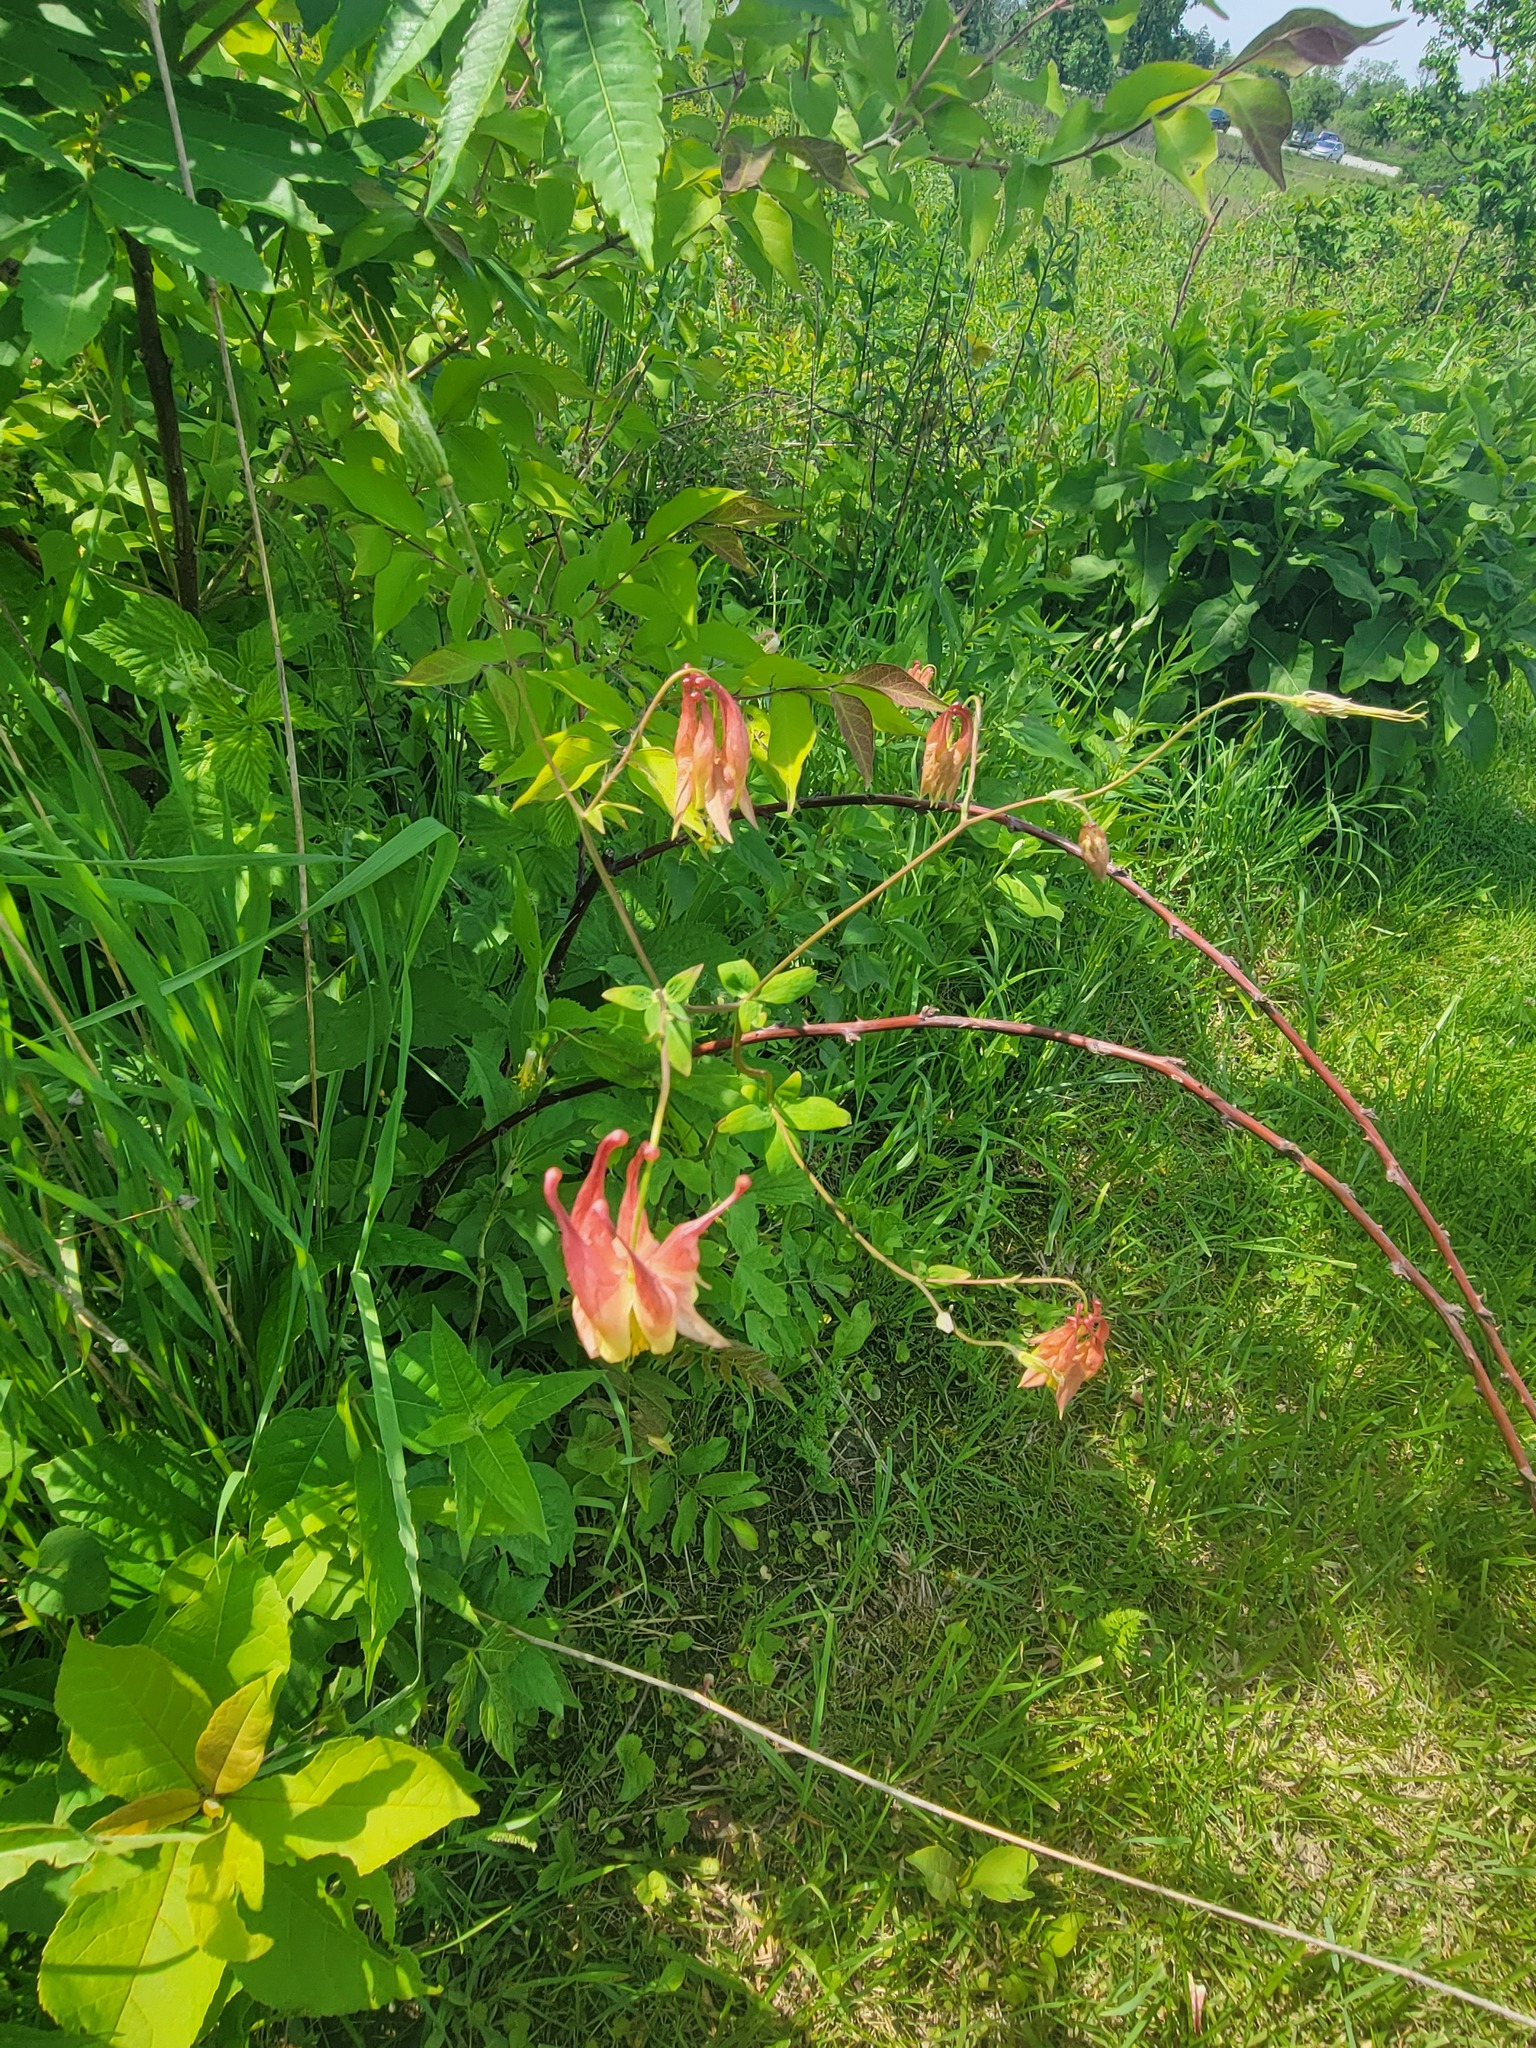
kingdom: Plantae
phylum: Tracheophyta
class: Magnoliopsida
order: Ranunculales
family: Ranunculaceae
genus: Aquilegia
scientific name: Aquilegia canadensis
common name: American columbine
